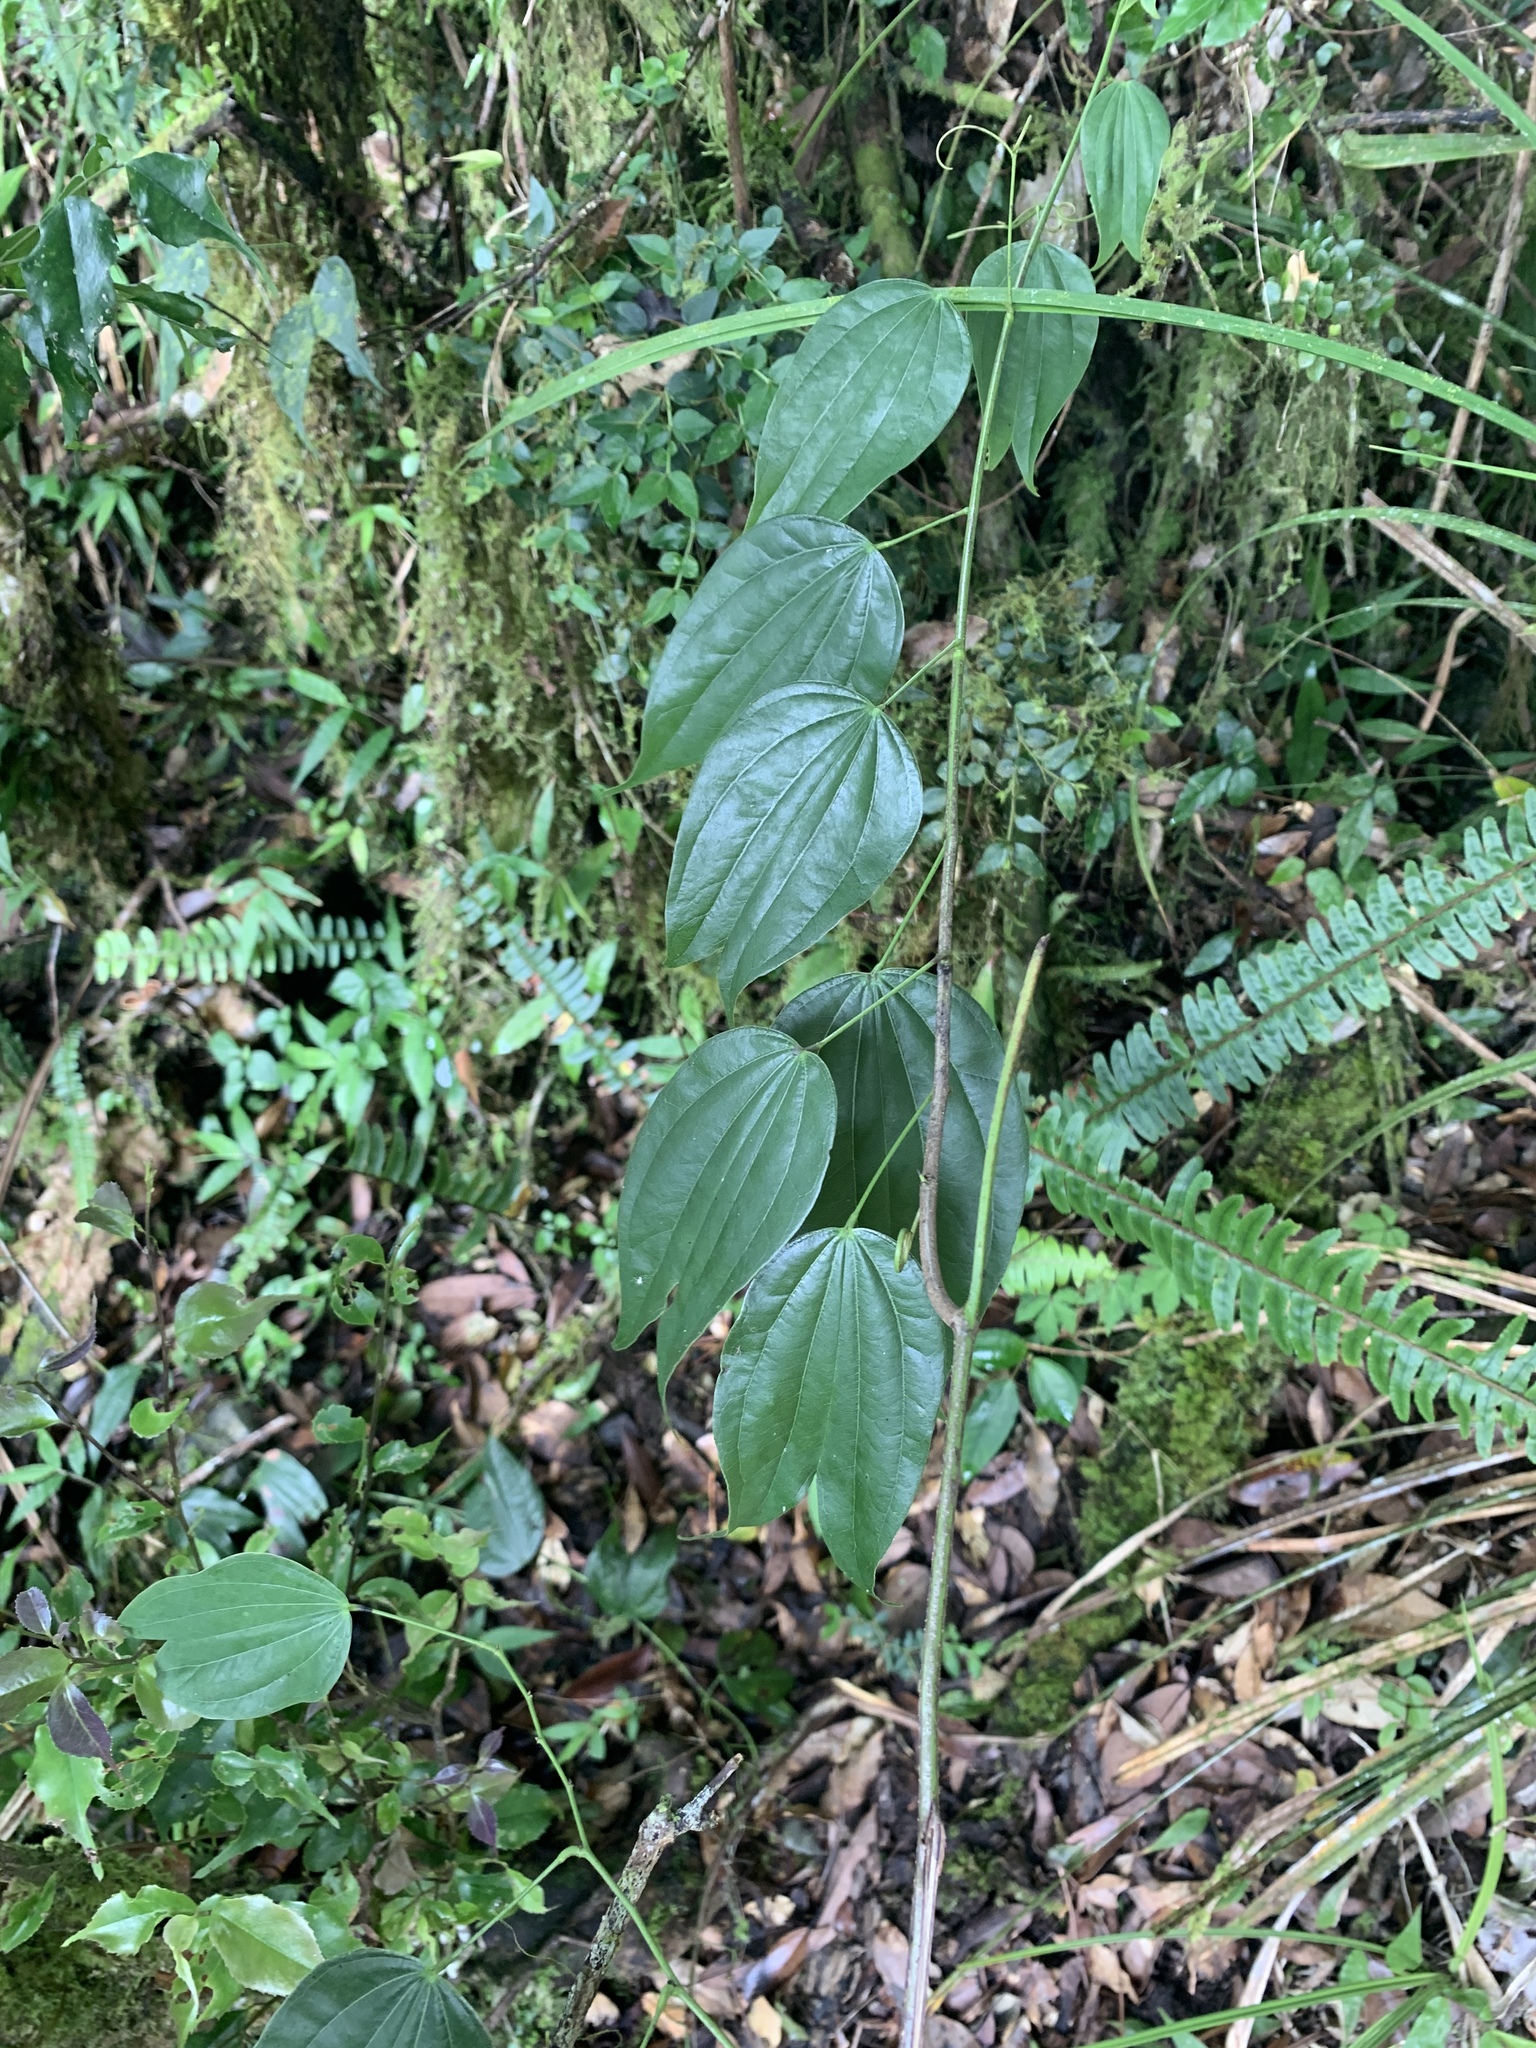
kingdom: Plantae
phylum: Tracheophyta
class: Magnoliopsida
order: Fabales
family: Fabaceae
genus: Phanera
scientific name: Phanera championii
